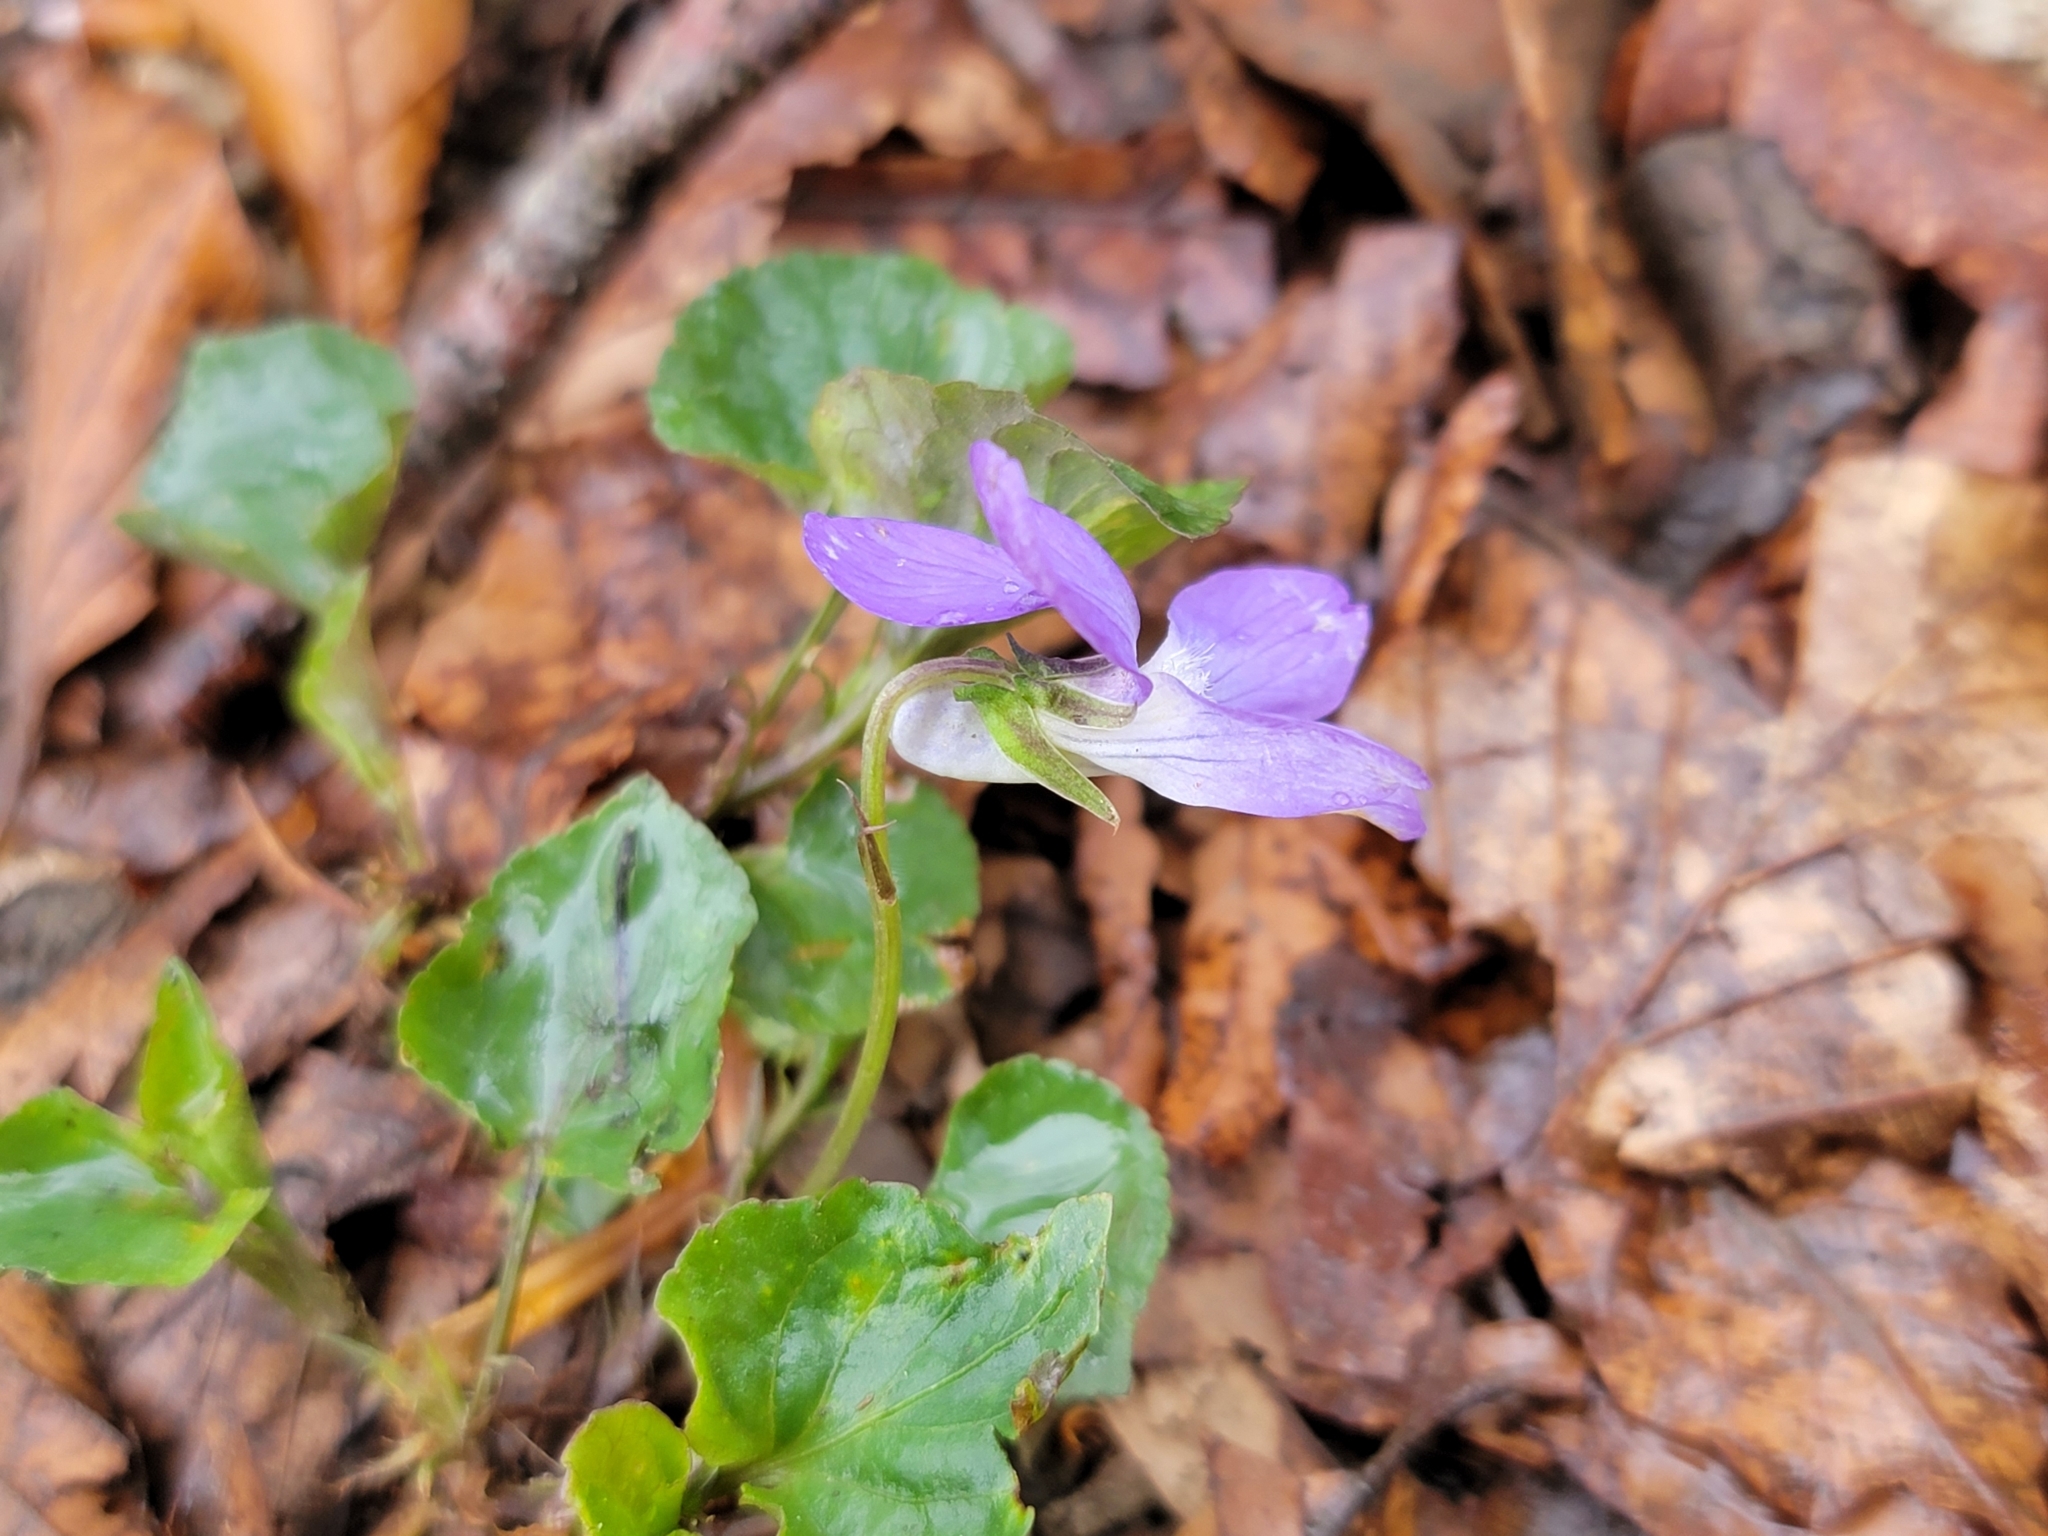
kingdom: Plantae
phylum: Tracheophyta
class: Magnoliopsida
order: Malpighiales
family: Violaceae
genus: Viola
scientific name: Viola riviniana
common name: Common dog-violet
